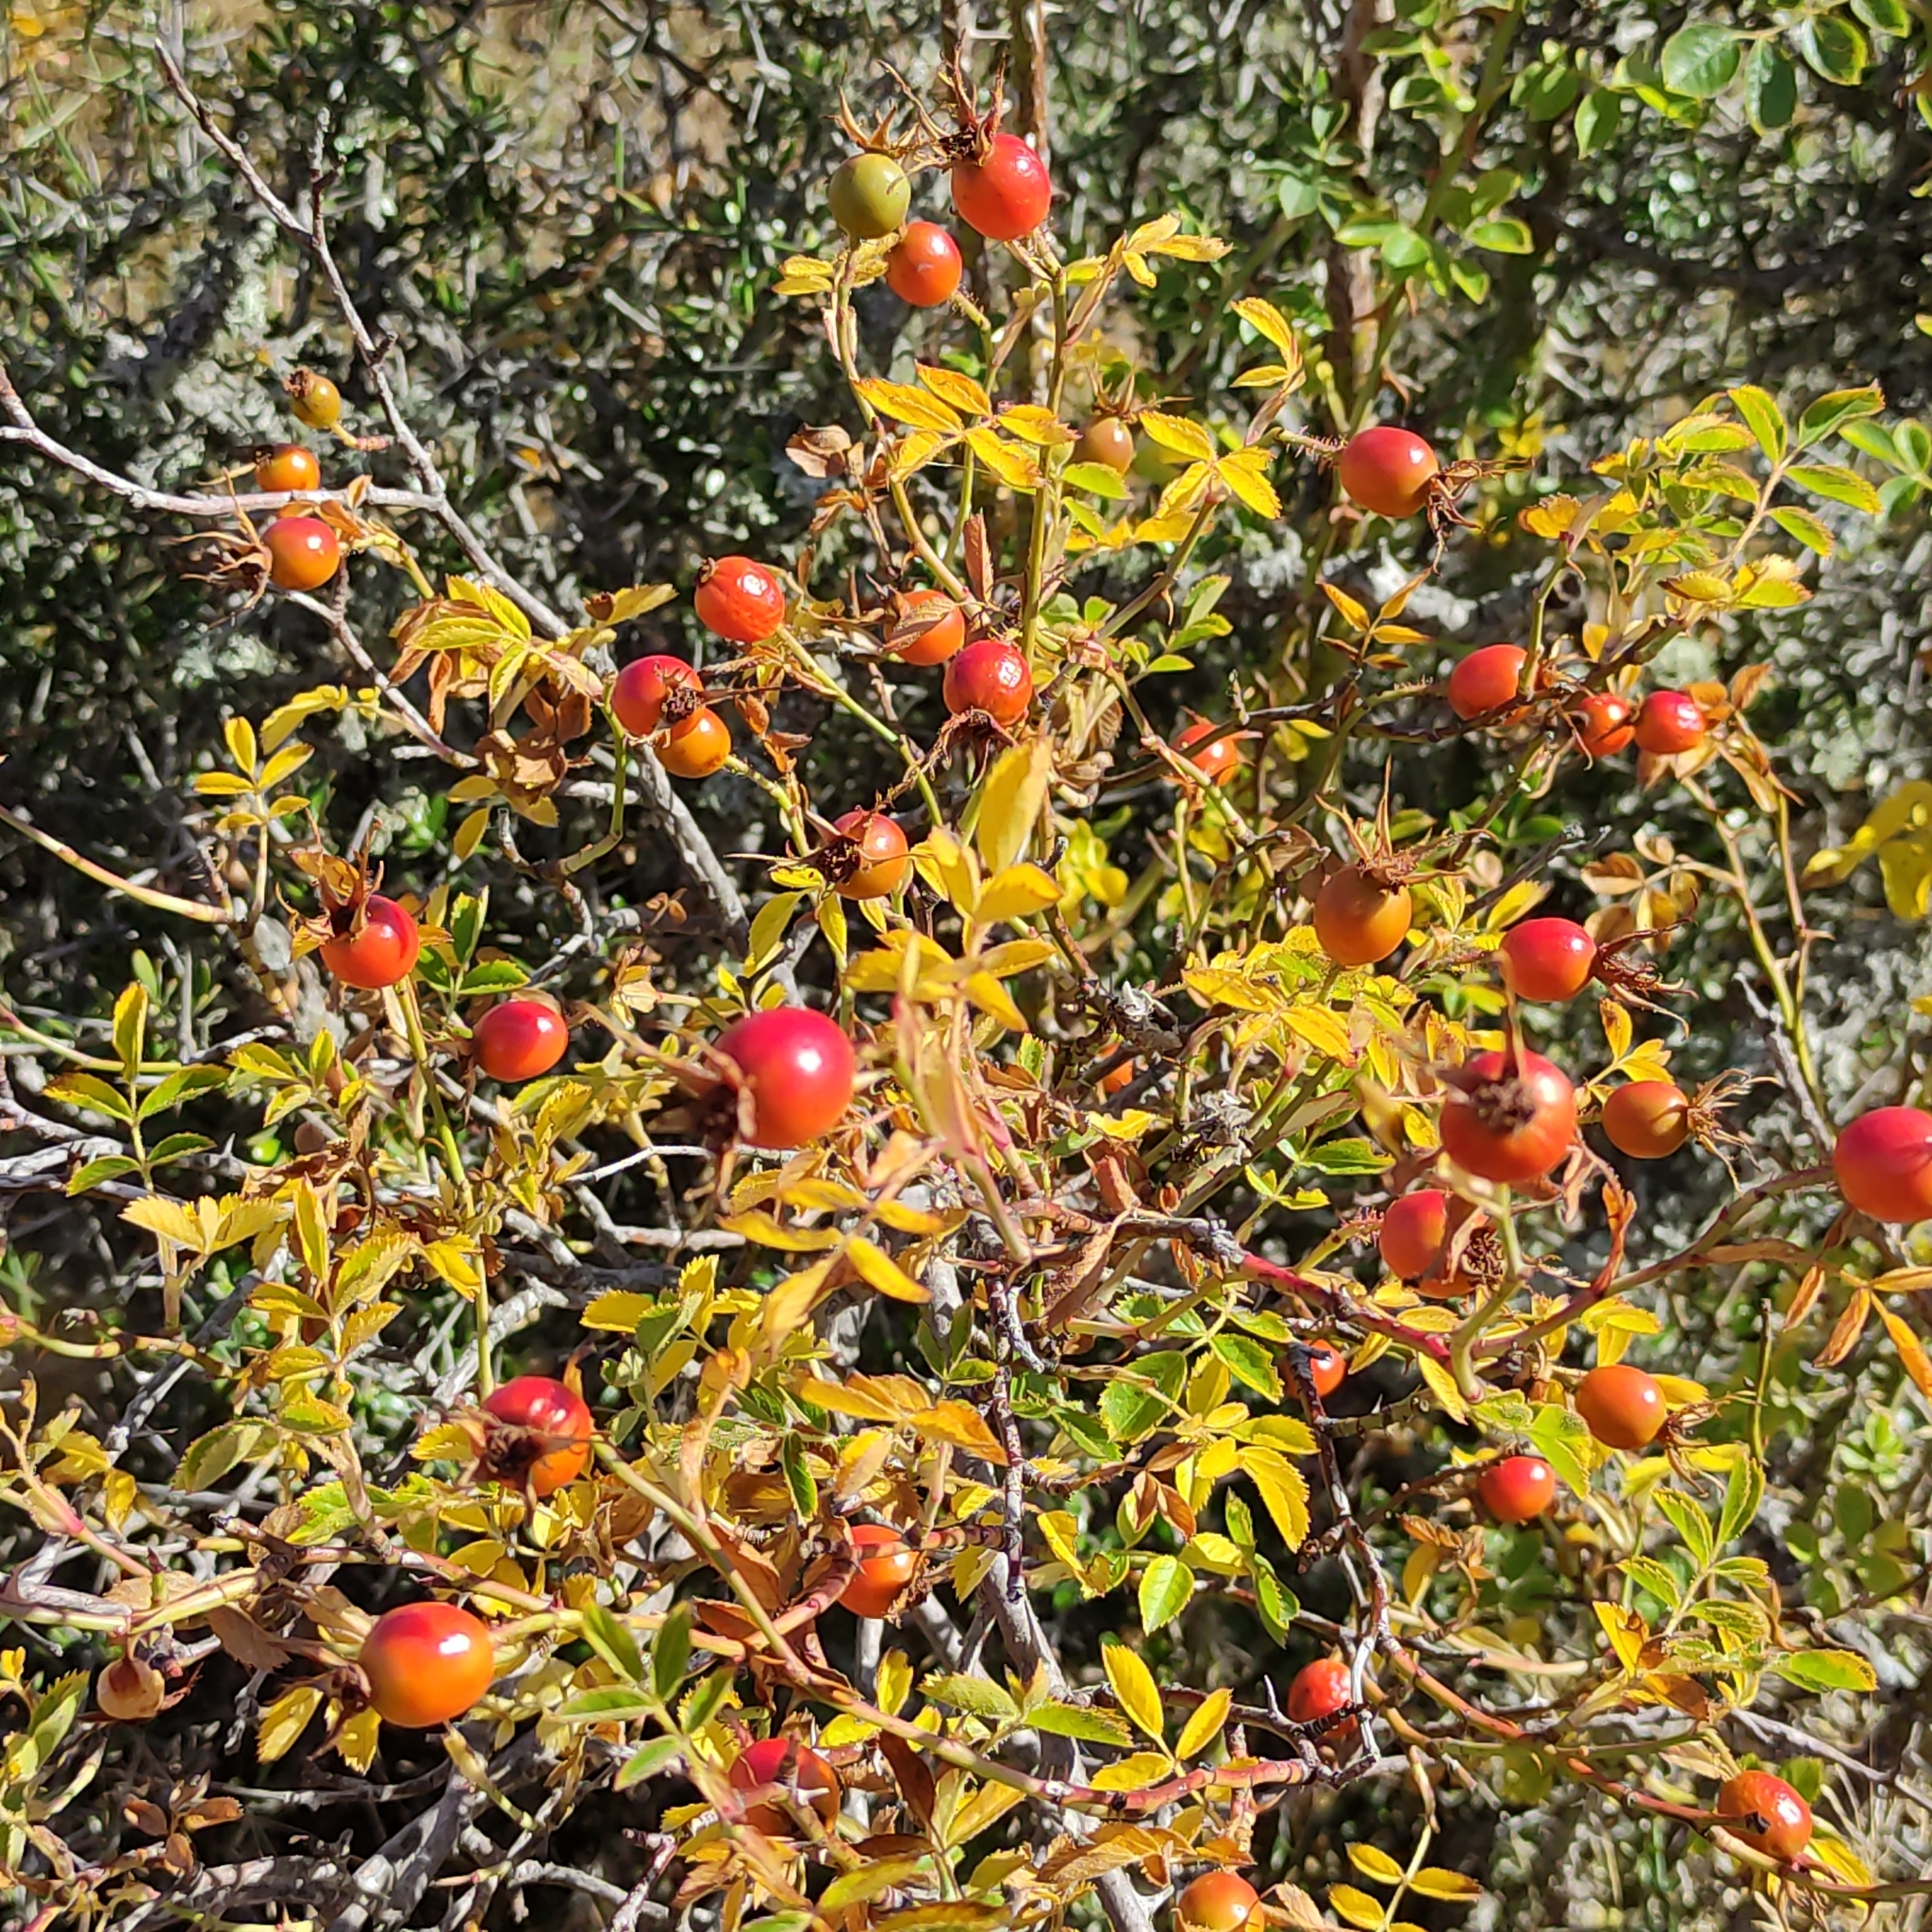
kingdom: Plantae
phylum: Tracheophyta
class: Magnoliopsida
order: Rosales
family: Rosaceae
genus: Rosa
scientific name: Rosa rubiginosa
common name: Sweet-briar
